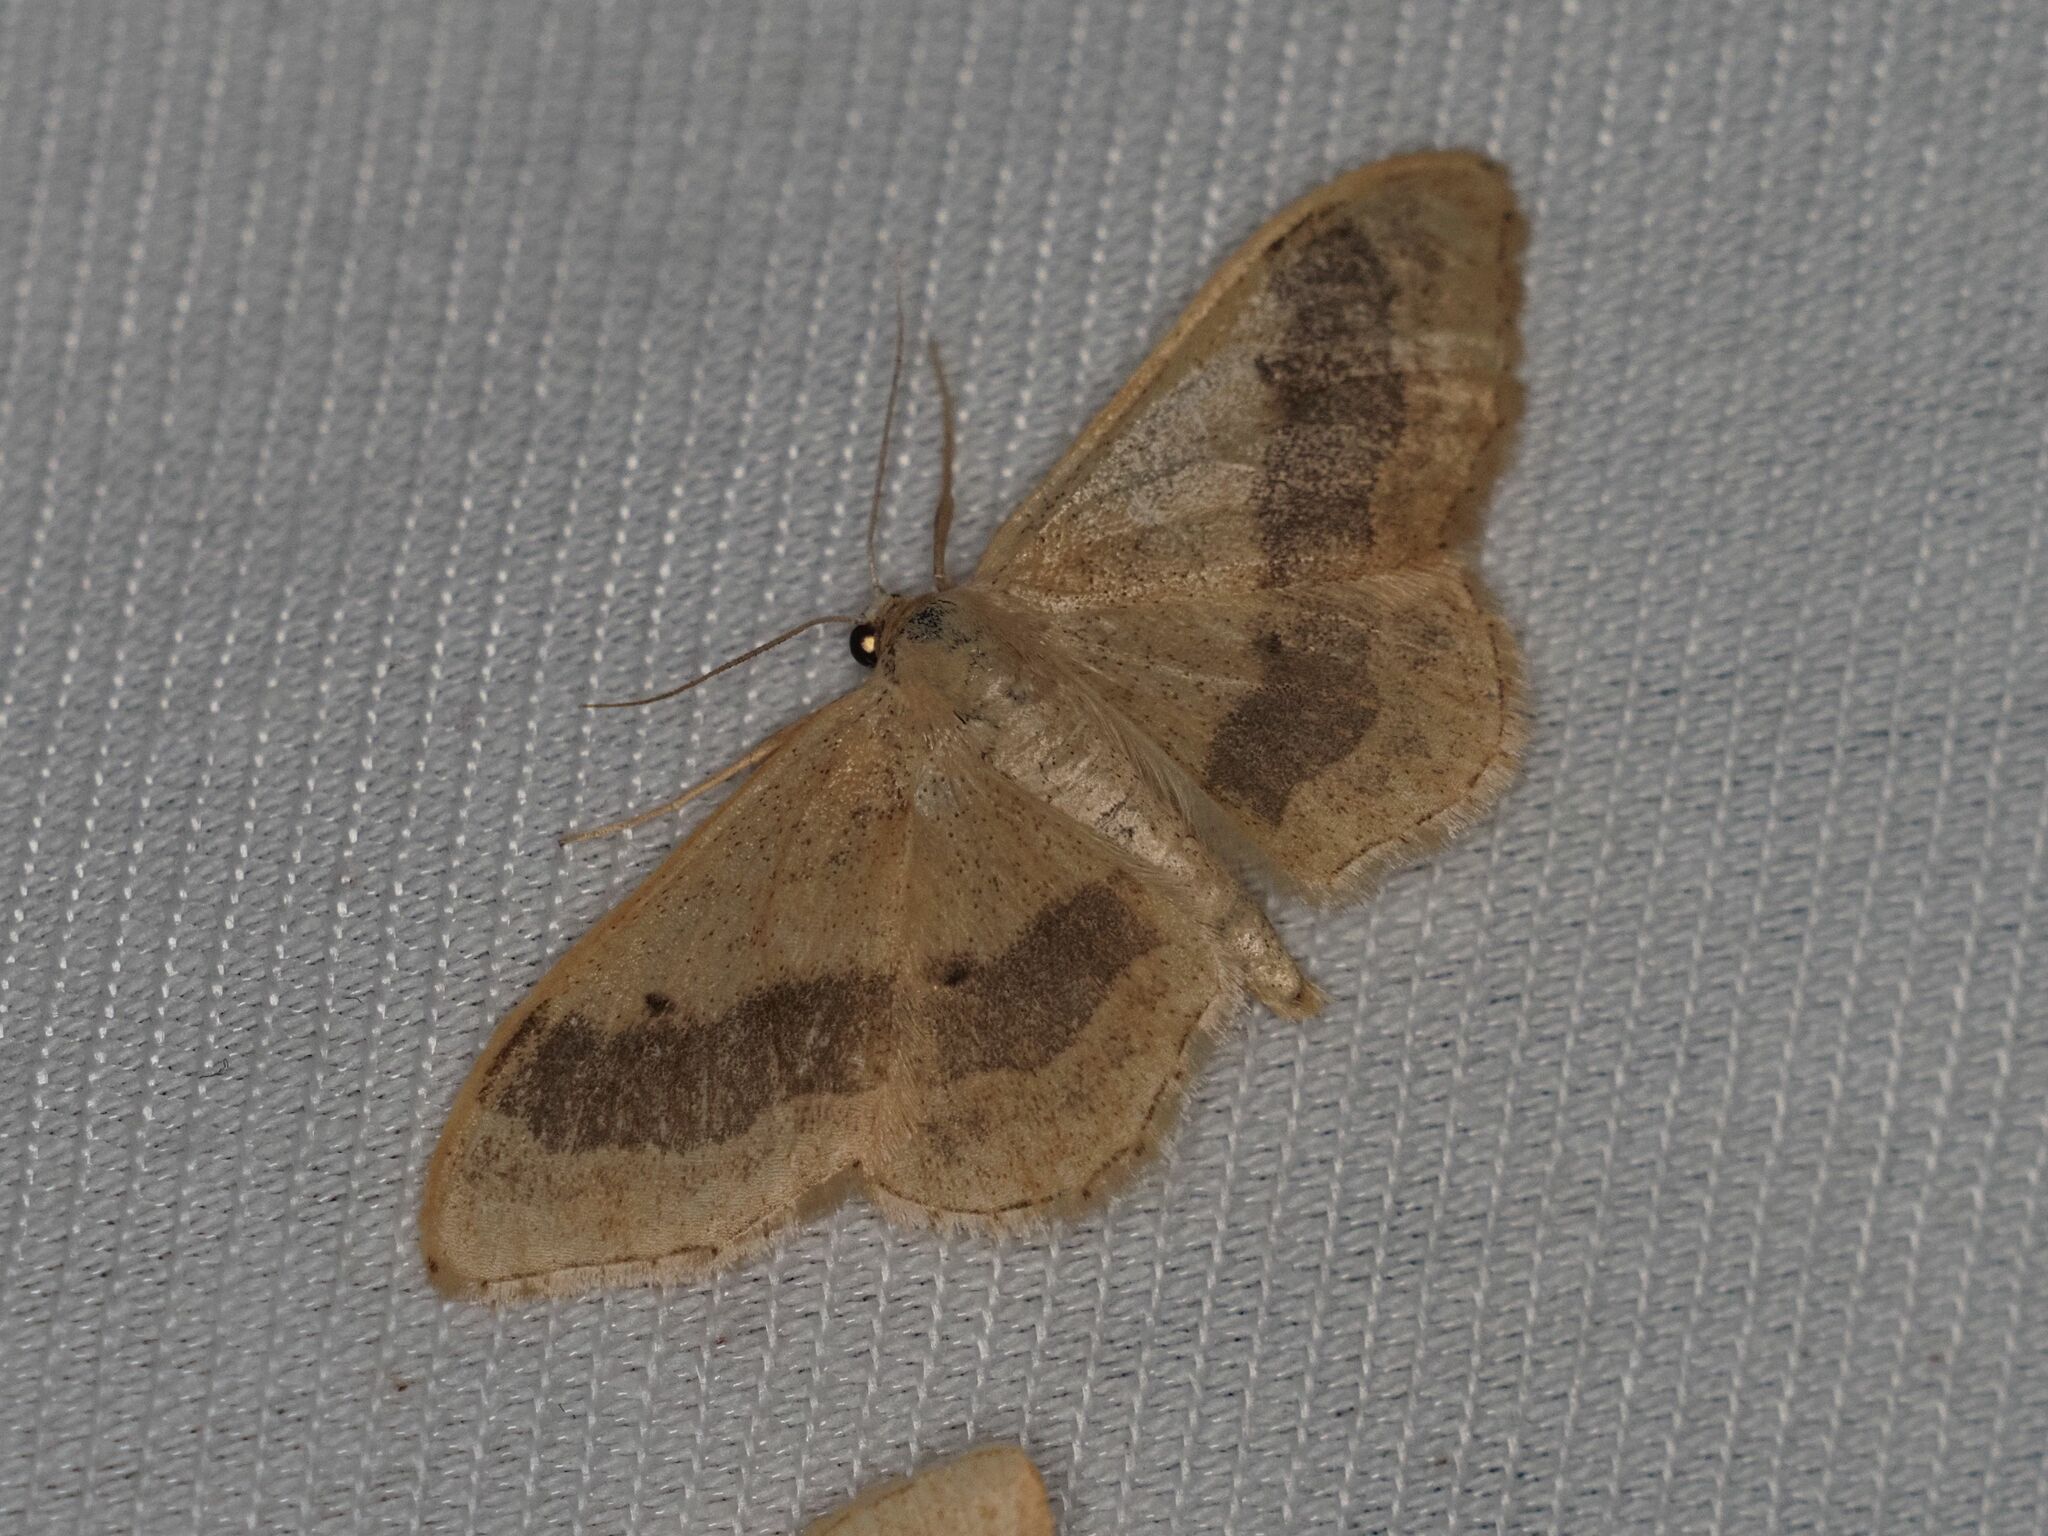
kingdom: Animalia
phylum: Arthropoda
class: Insecta
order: Lepidoptera
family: Geometridae
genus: Idaea
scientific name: Idaea aversata
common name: Riband wave
